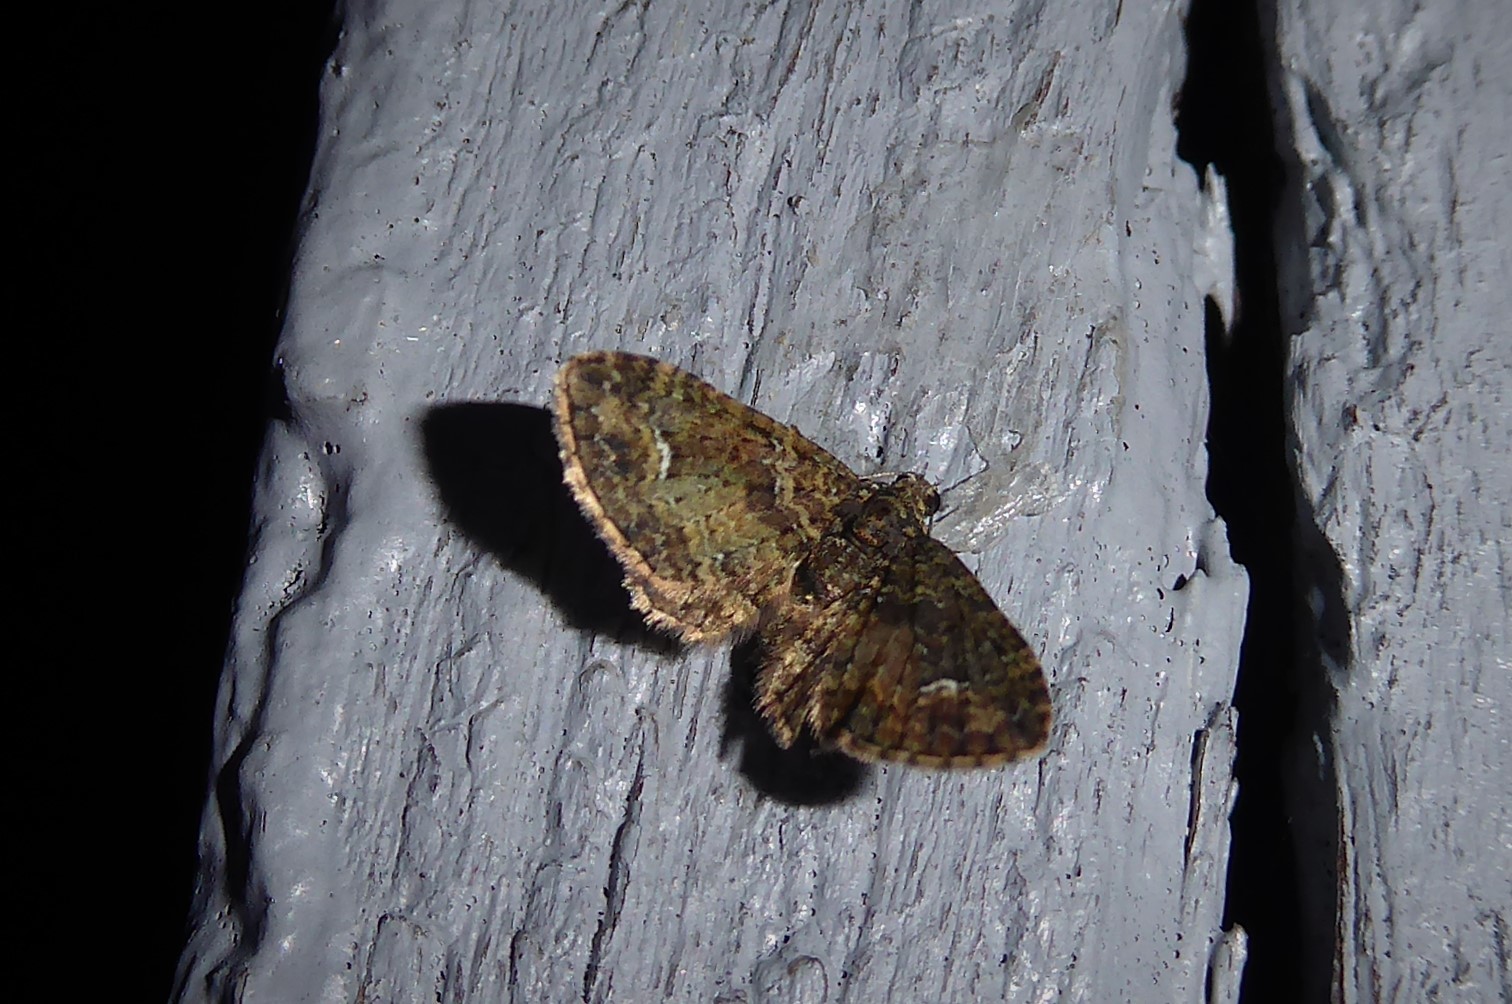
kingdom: Animalia
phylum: Arthropoda
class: Insecta
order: Lepidoptera
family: Geometridae
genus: Pasiphilodes
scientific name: Pasiphilodes testulata
